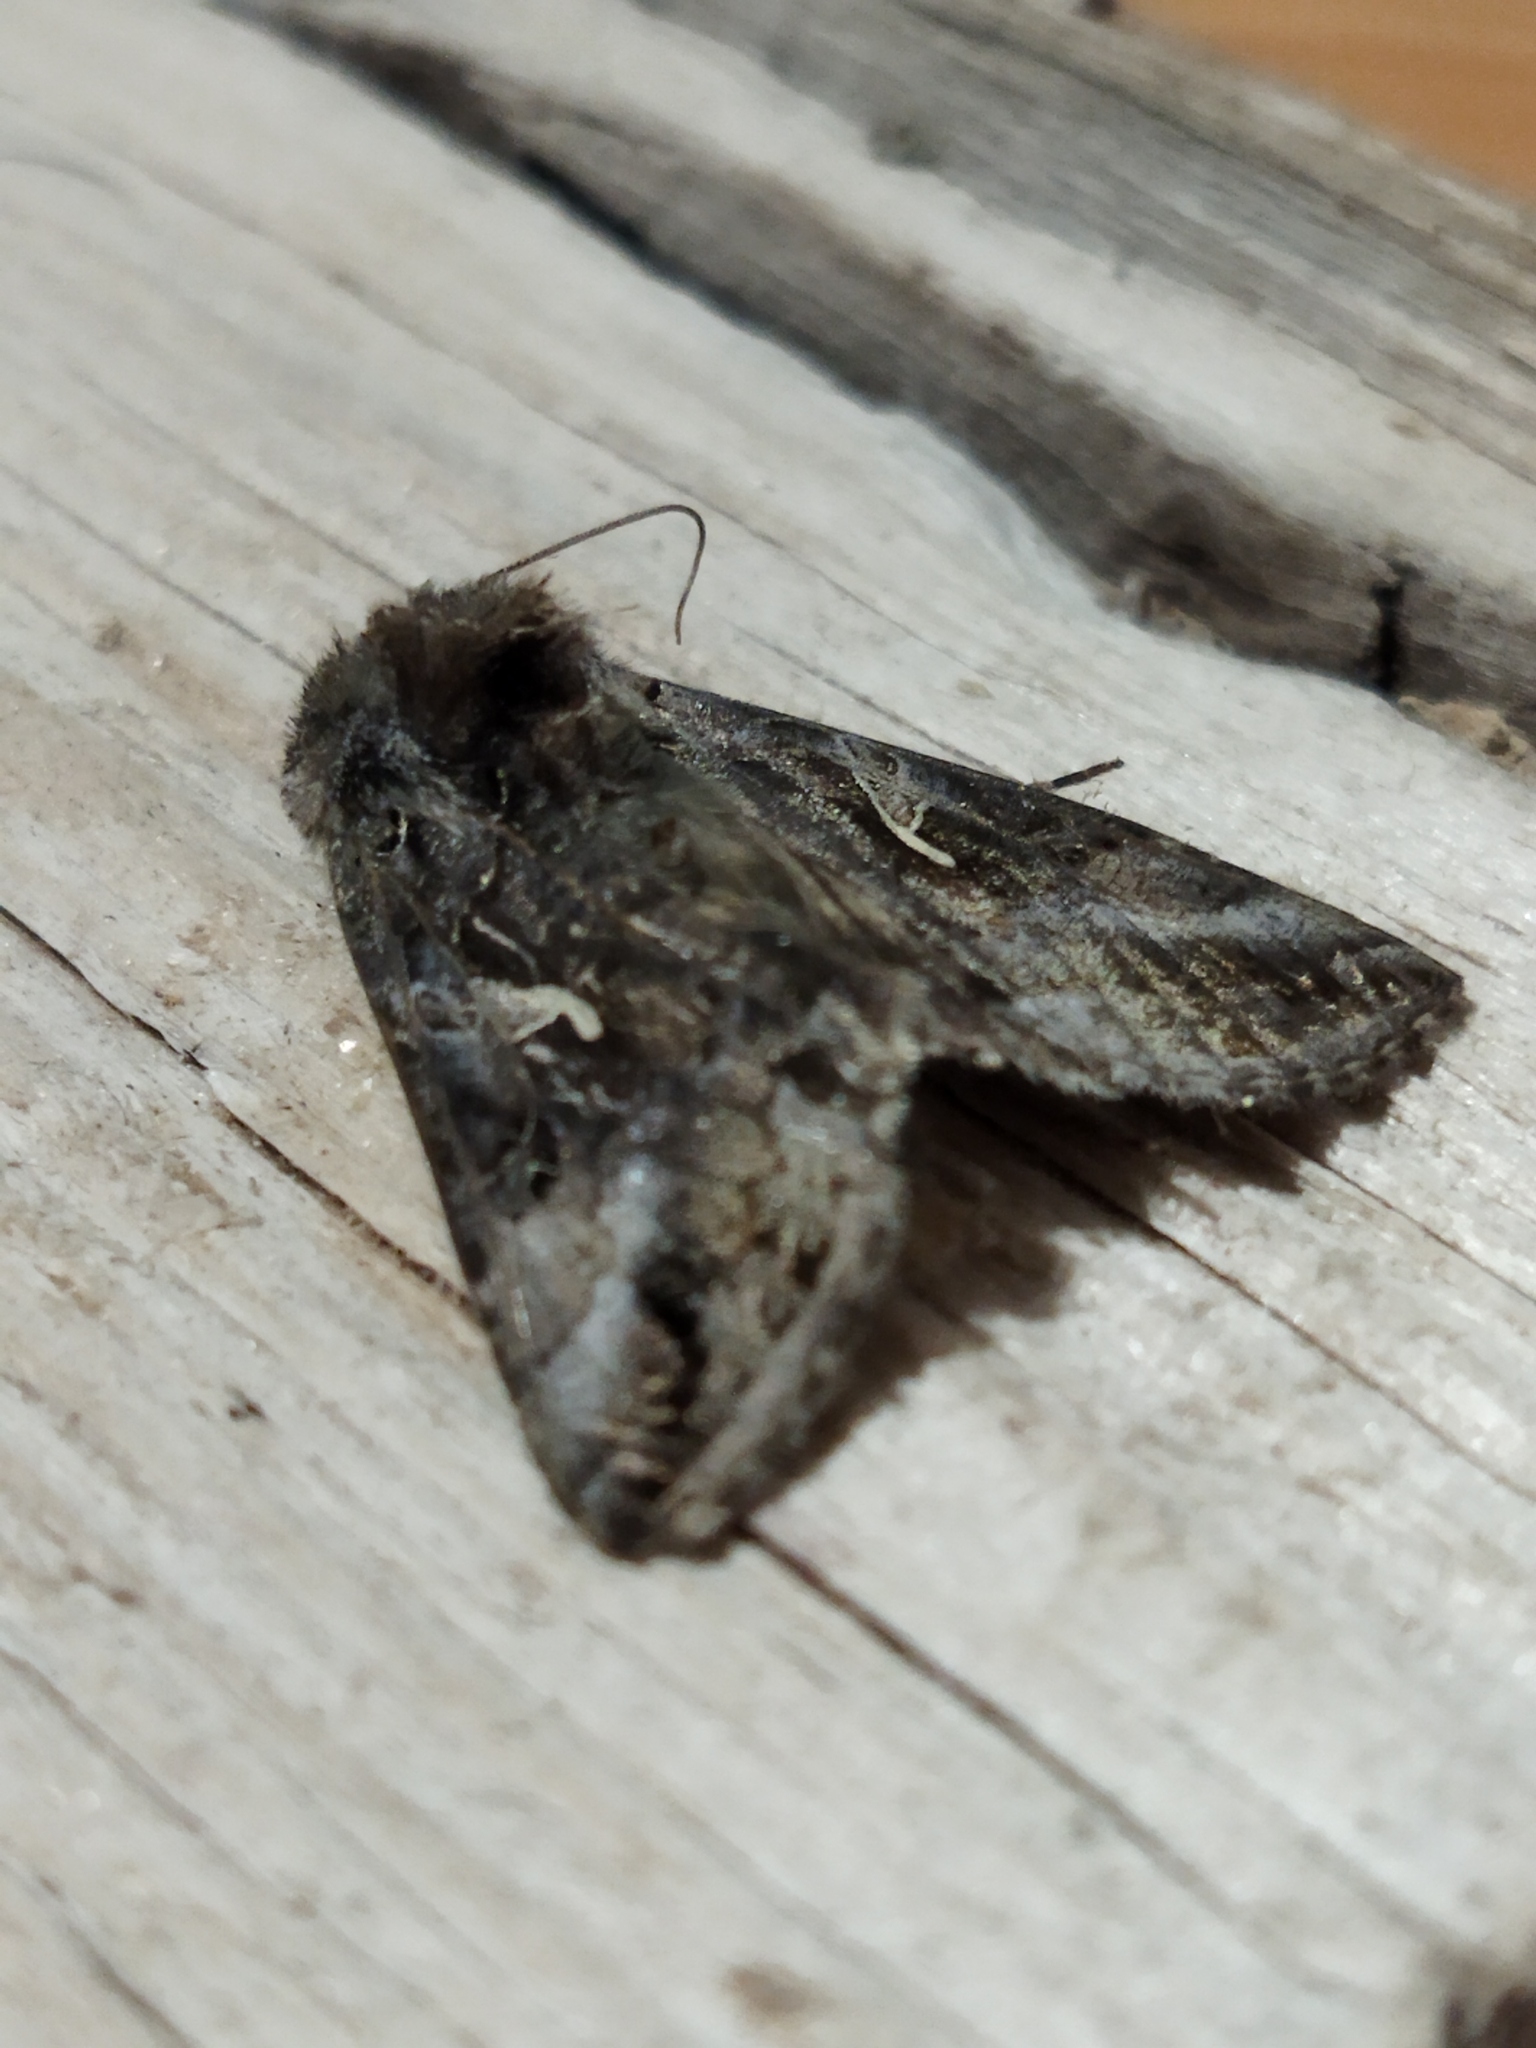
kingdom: Animalia
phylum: Arthropoda
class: Insecta
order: Lepidoptera
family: Noctuidae
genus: Autographa
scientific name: Autographa gamma
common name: Silver y
